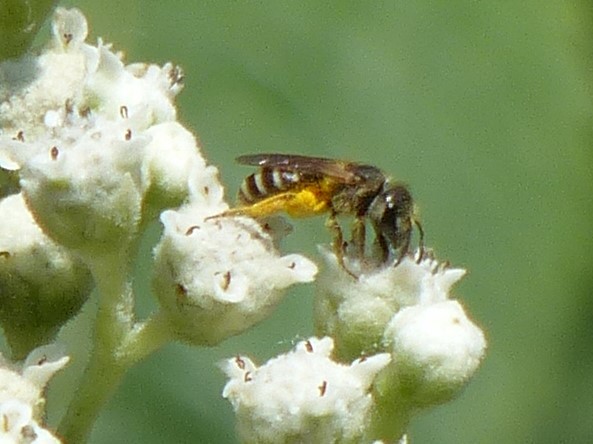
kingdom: Animalia
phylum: Arthropoda
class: Insecta
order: Hymenoptera
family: Halictidae
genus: Halictus
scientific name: Halictus ligatus
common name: Ligated furrow bee
